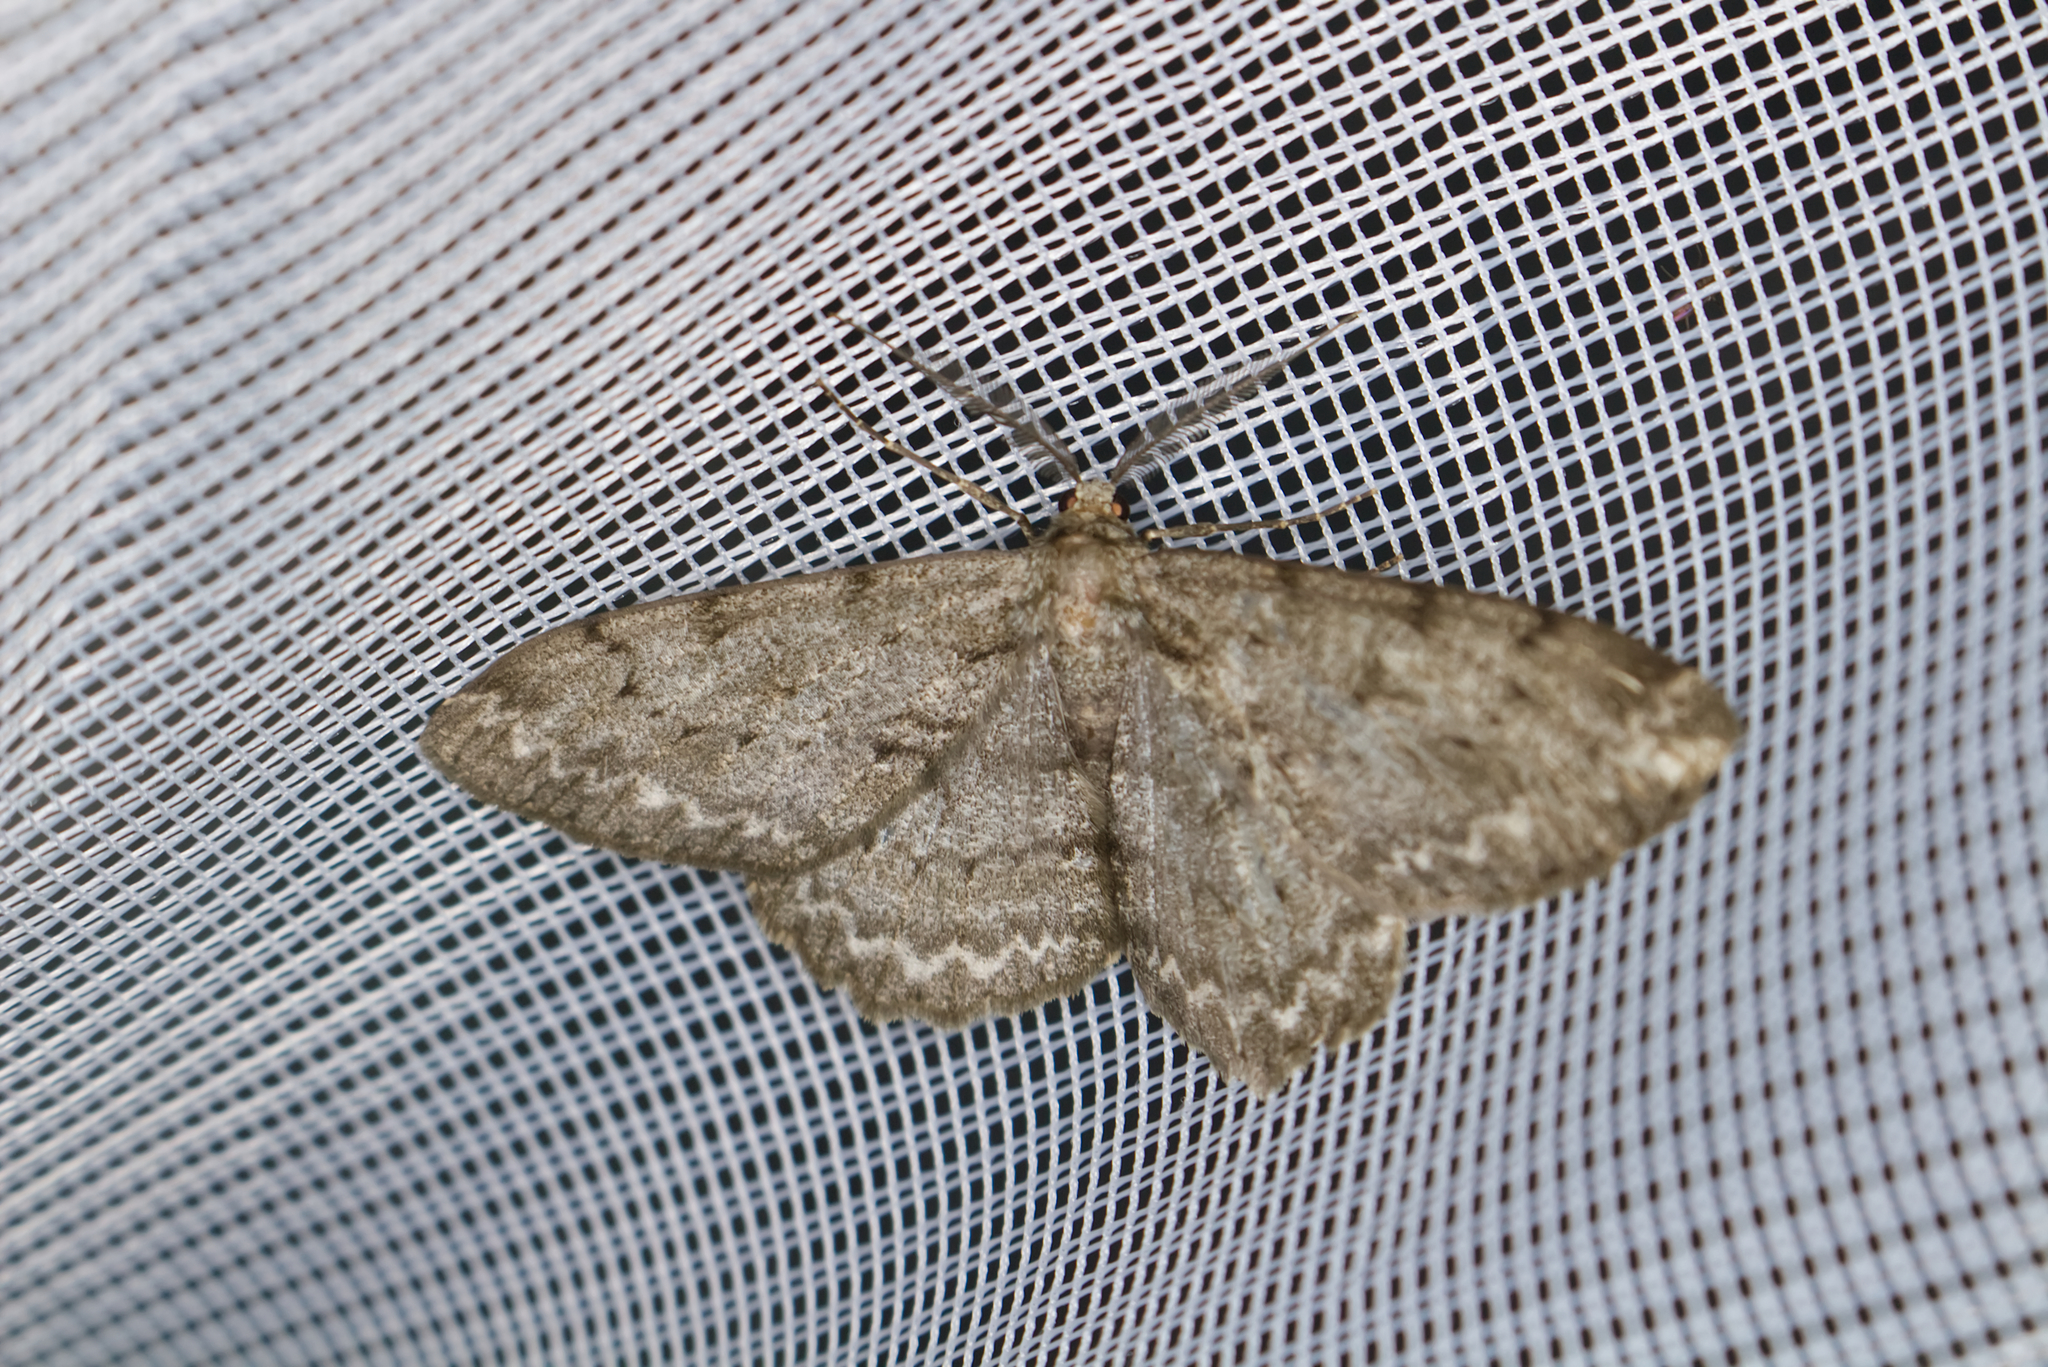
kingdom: Animalia
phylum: Arthropoda
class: Insecta
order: Lepidoptera
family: Geometridae
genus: Hypomecis
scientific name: Hypomecis punctinalis
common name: Pale oak beauty
